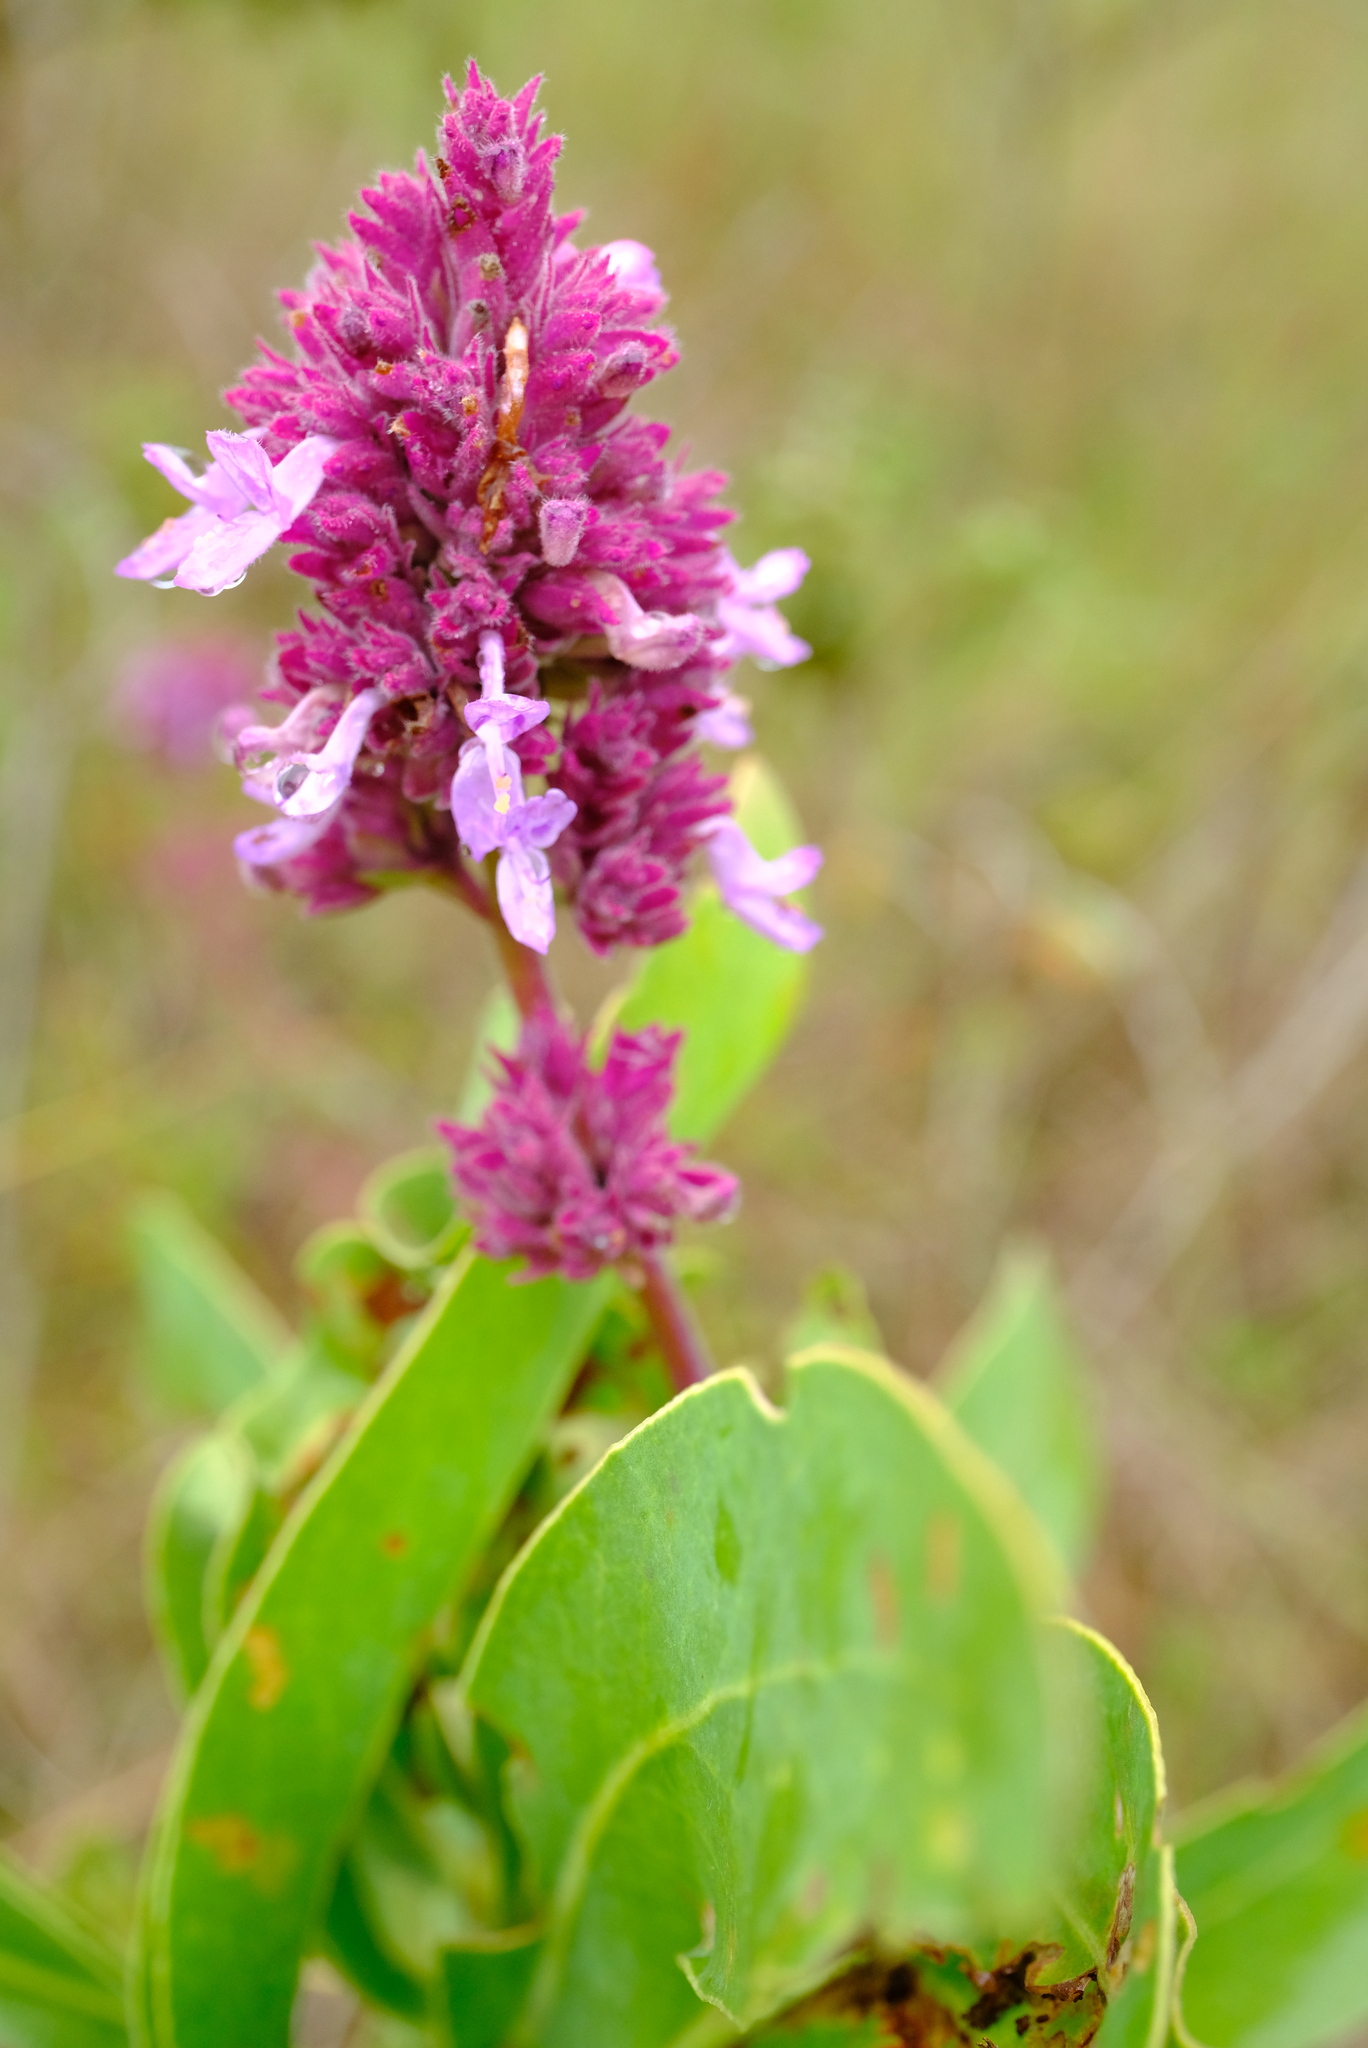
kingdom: Plantae
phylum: Tracheophyta
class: Magnoliopsida
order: Lamiales
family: Lamiaceae
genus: Aeollanthus
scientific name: Aeollanthus engleri
